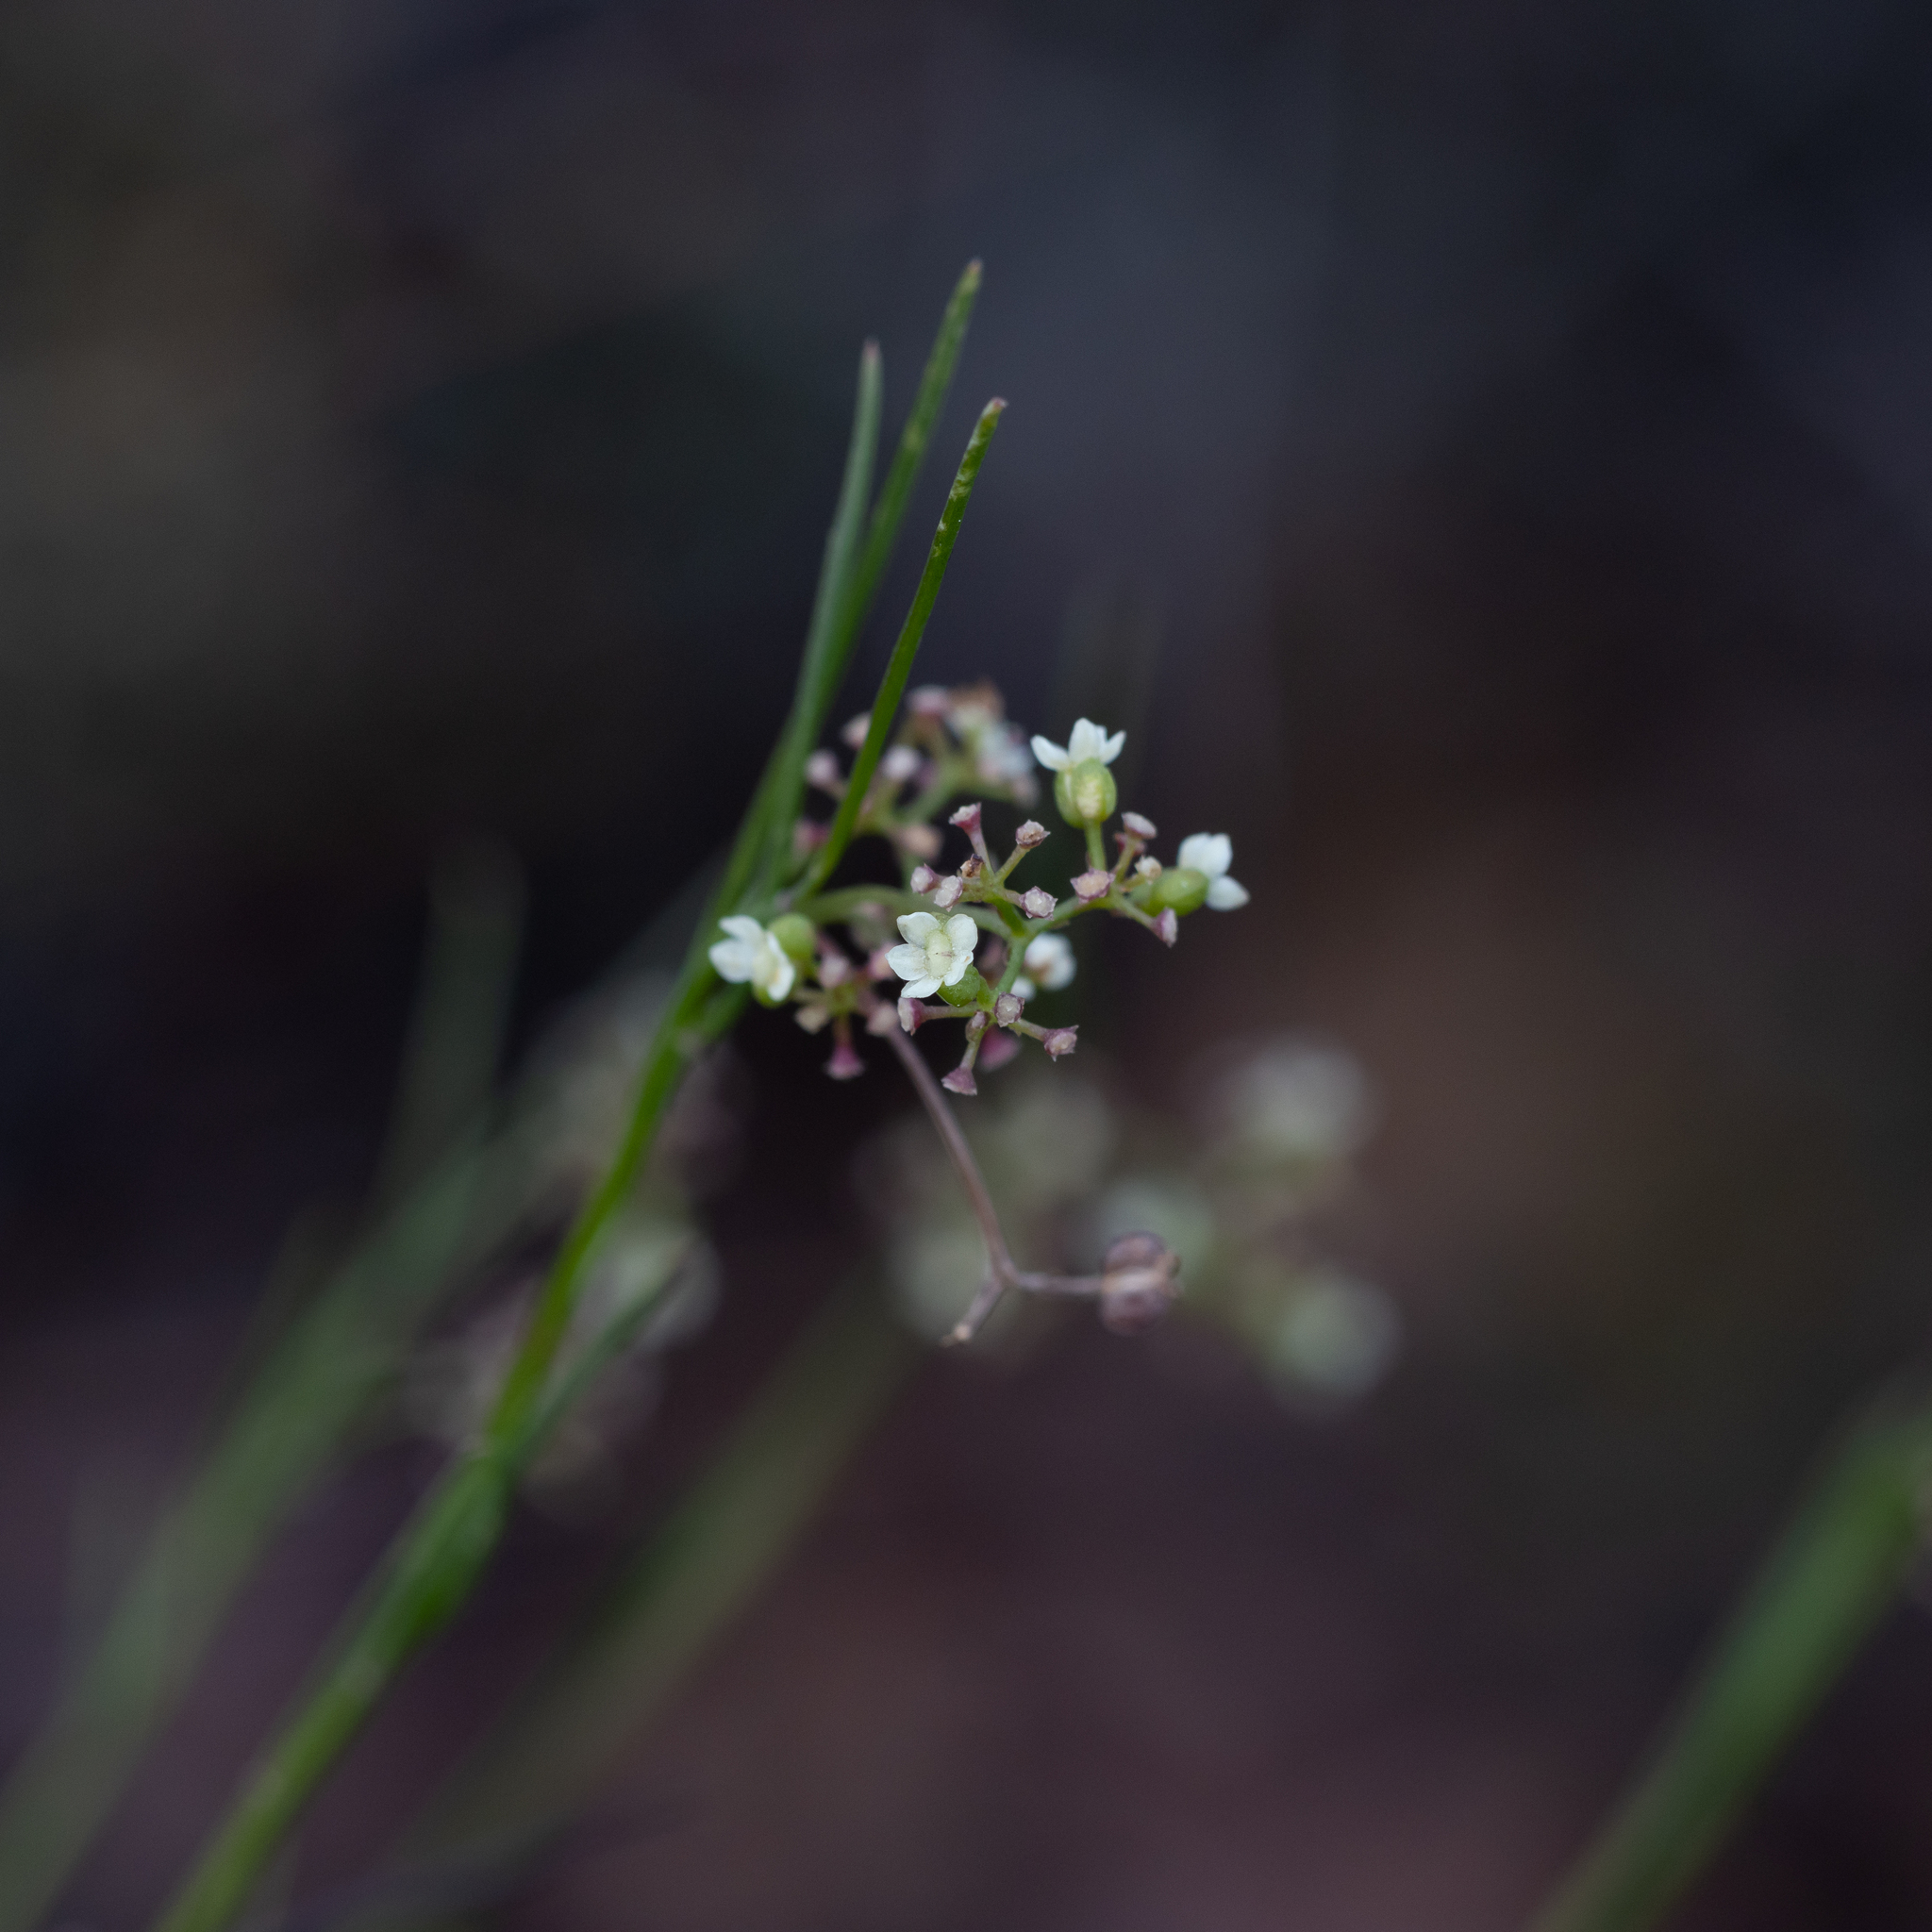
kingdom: Plantae
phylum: Tracheophyta
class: Magnoliopsida
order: Apiales
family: Apiaceae
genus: Platysace
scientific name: Platysace heterophylla
